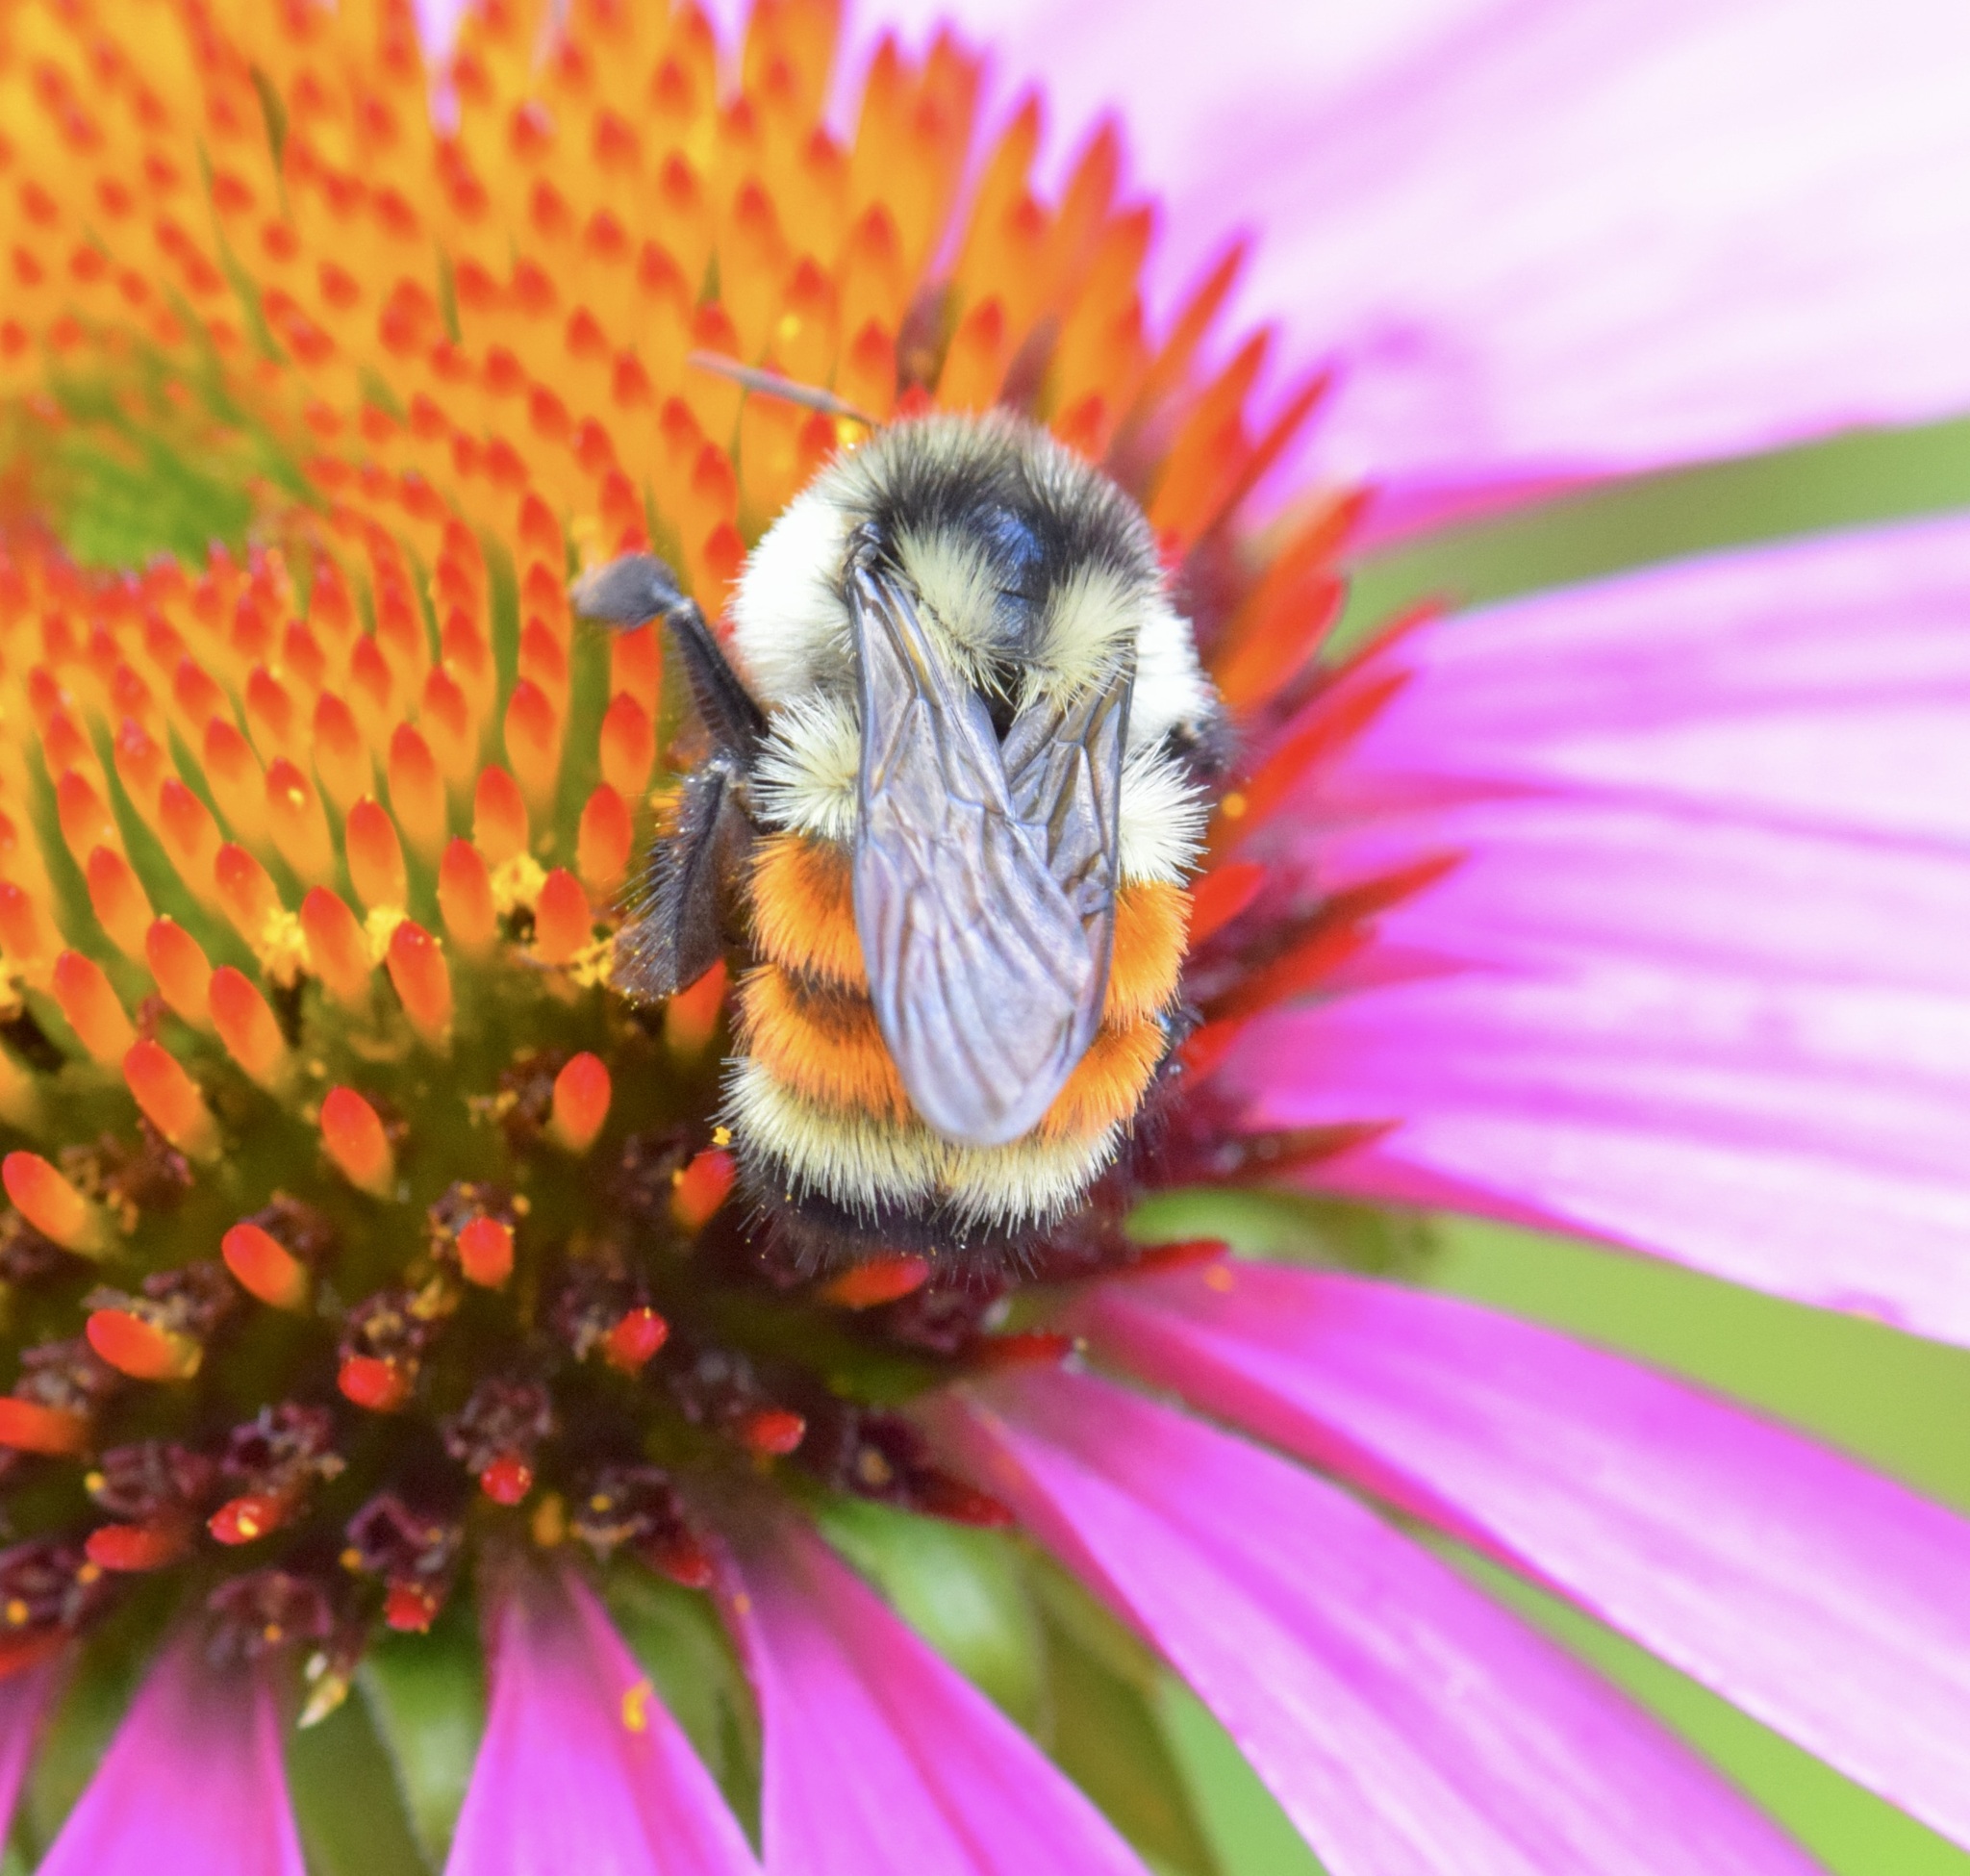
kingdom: Animalia
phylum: Arthropoda
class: Insecta
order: Hymenoptera
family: Apidae
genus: Bombus
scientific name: Bombus ternarius
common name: Tri-colored bumble bee
